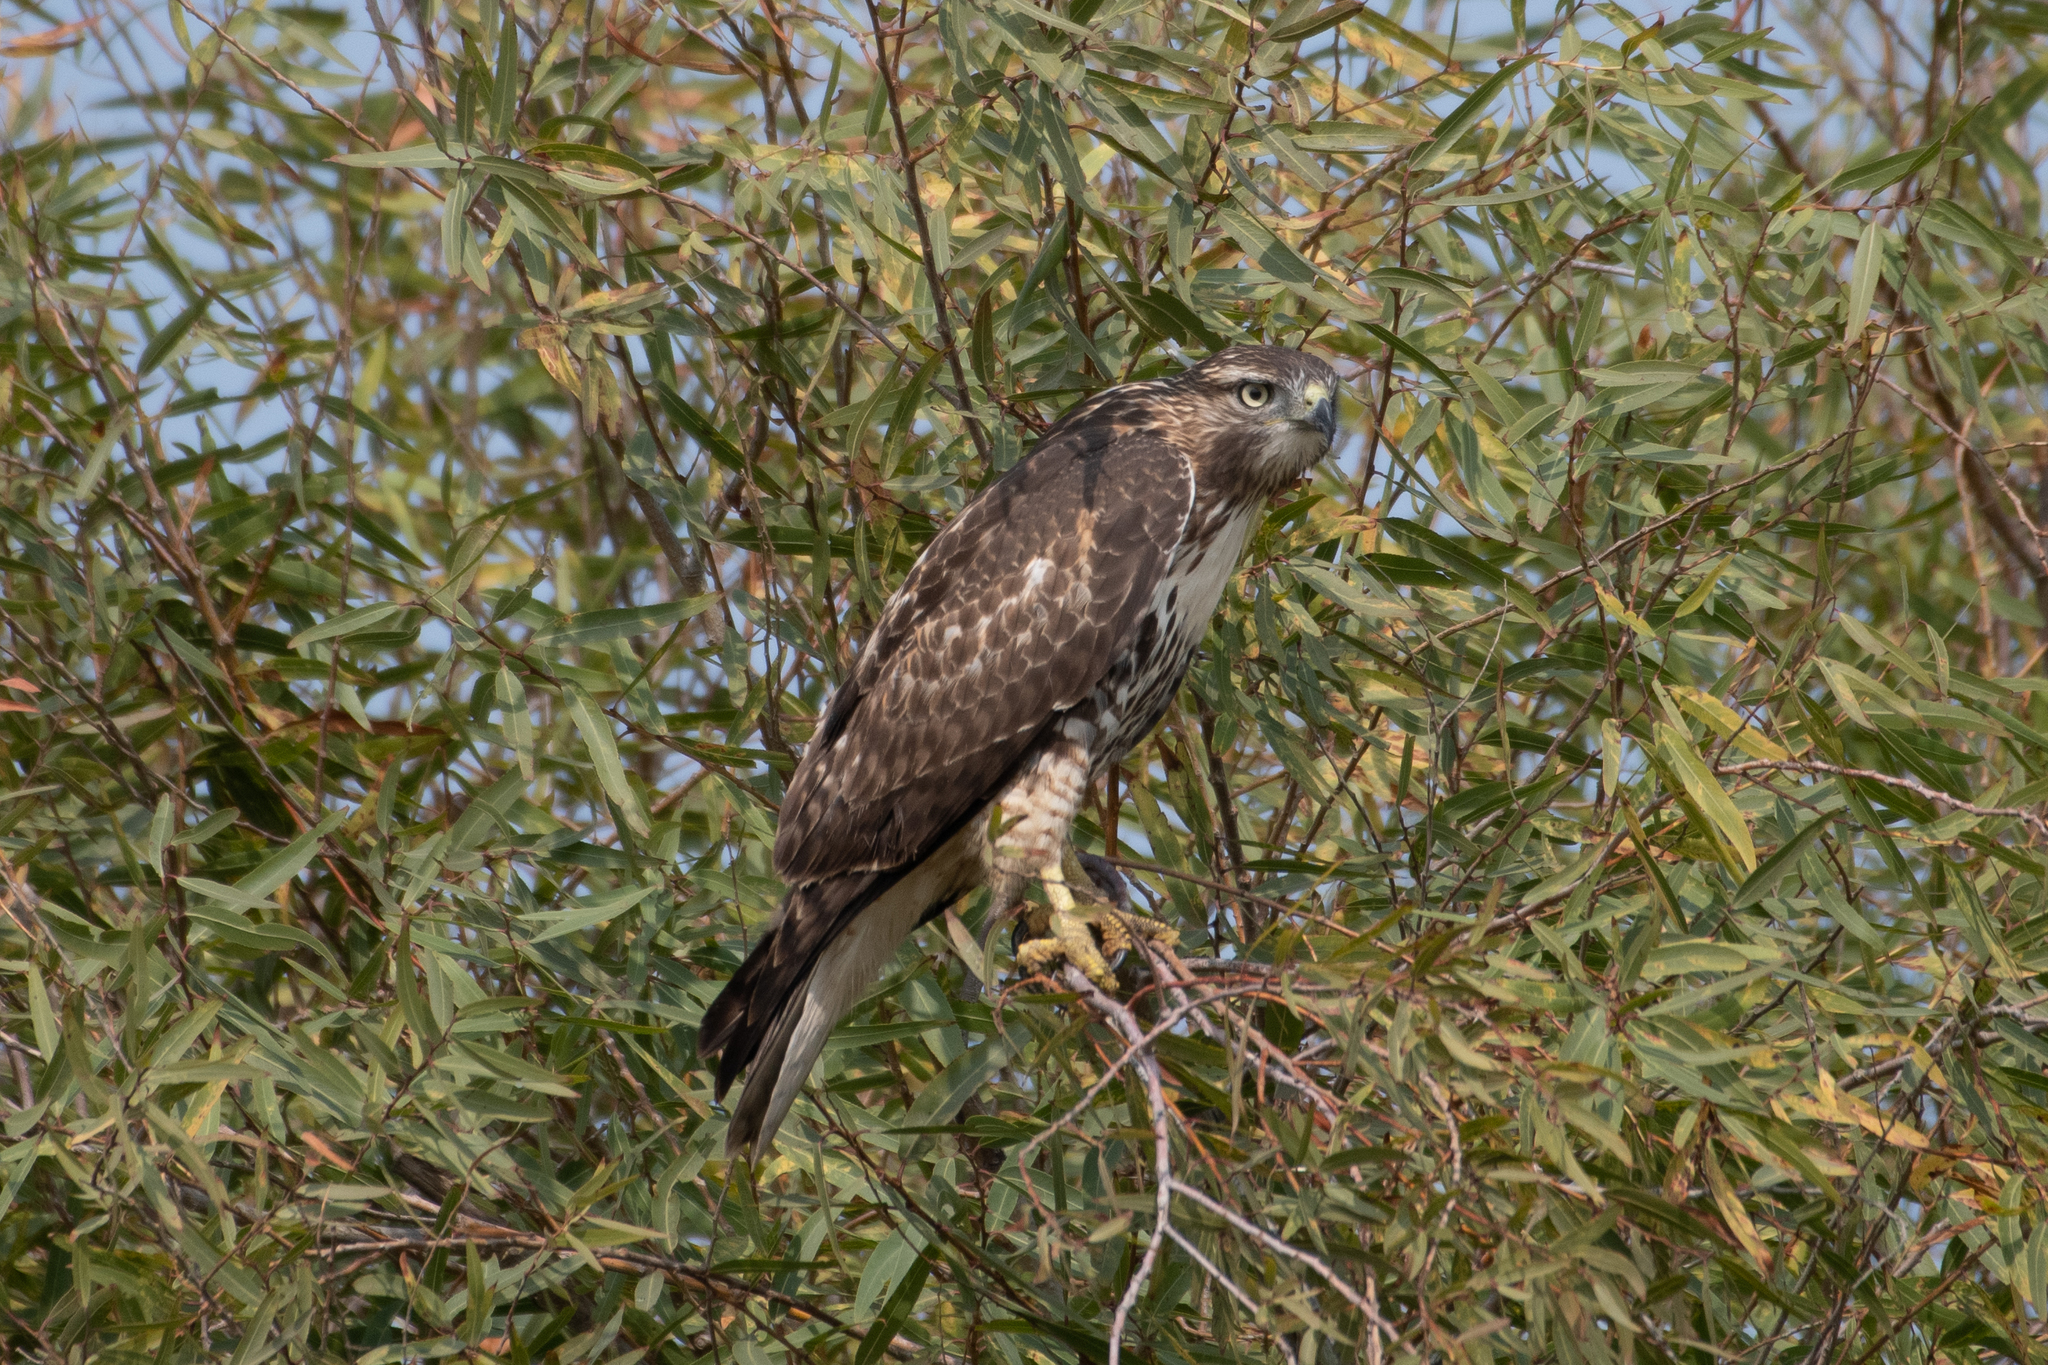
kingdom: Animalia
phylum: Chordata
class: Aves
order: Accipitriformes
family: Accipitridae
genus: Buteo
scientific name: Buteo jamaicensis
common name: Red-tailed hawk
